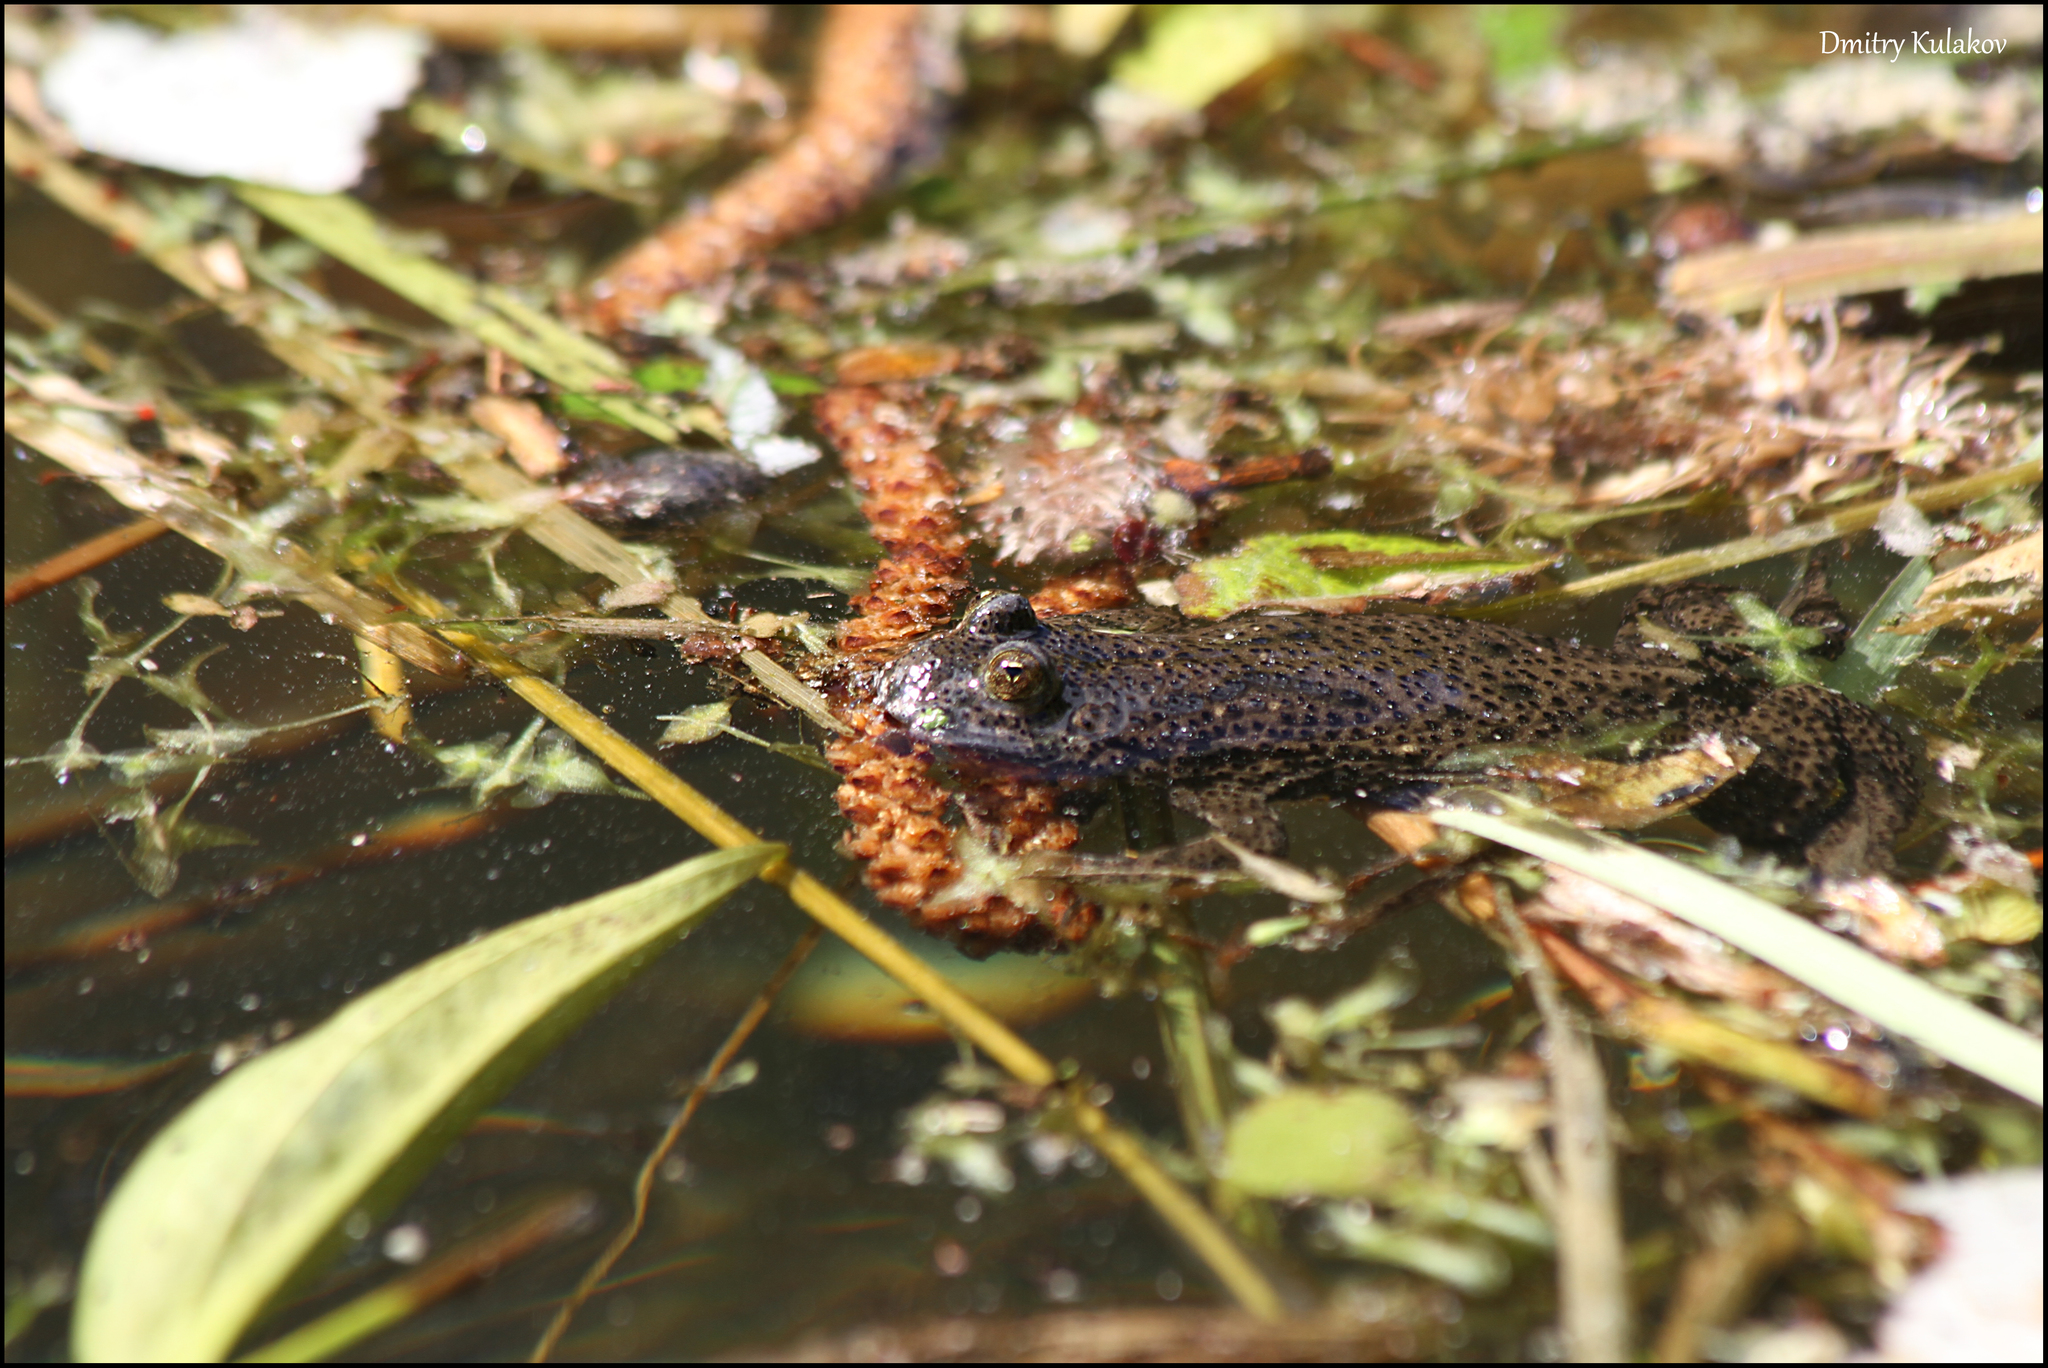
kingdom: Animalia
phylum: Chordata
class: Amphibia
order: Anura
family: Bombinatoridae
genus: Bombina
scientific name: Bombina bombina
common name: Fire-bellied toad
